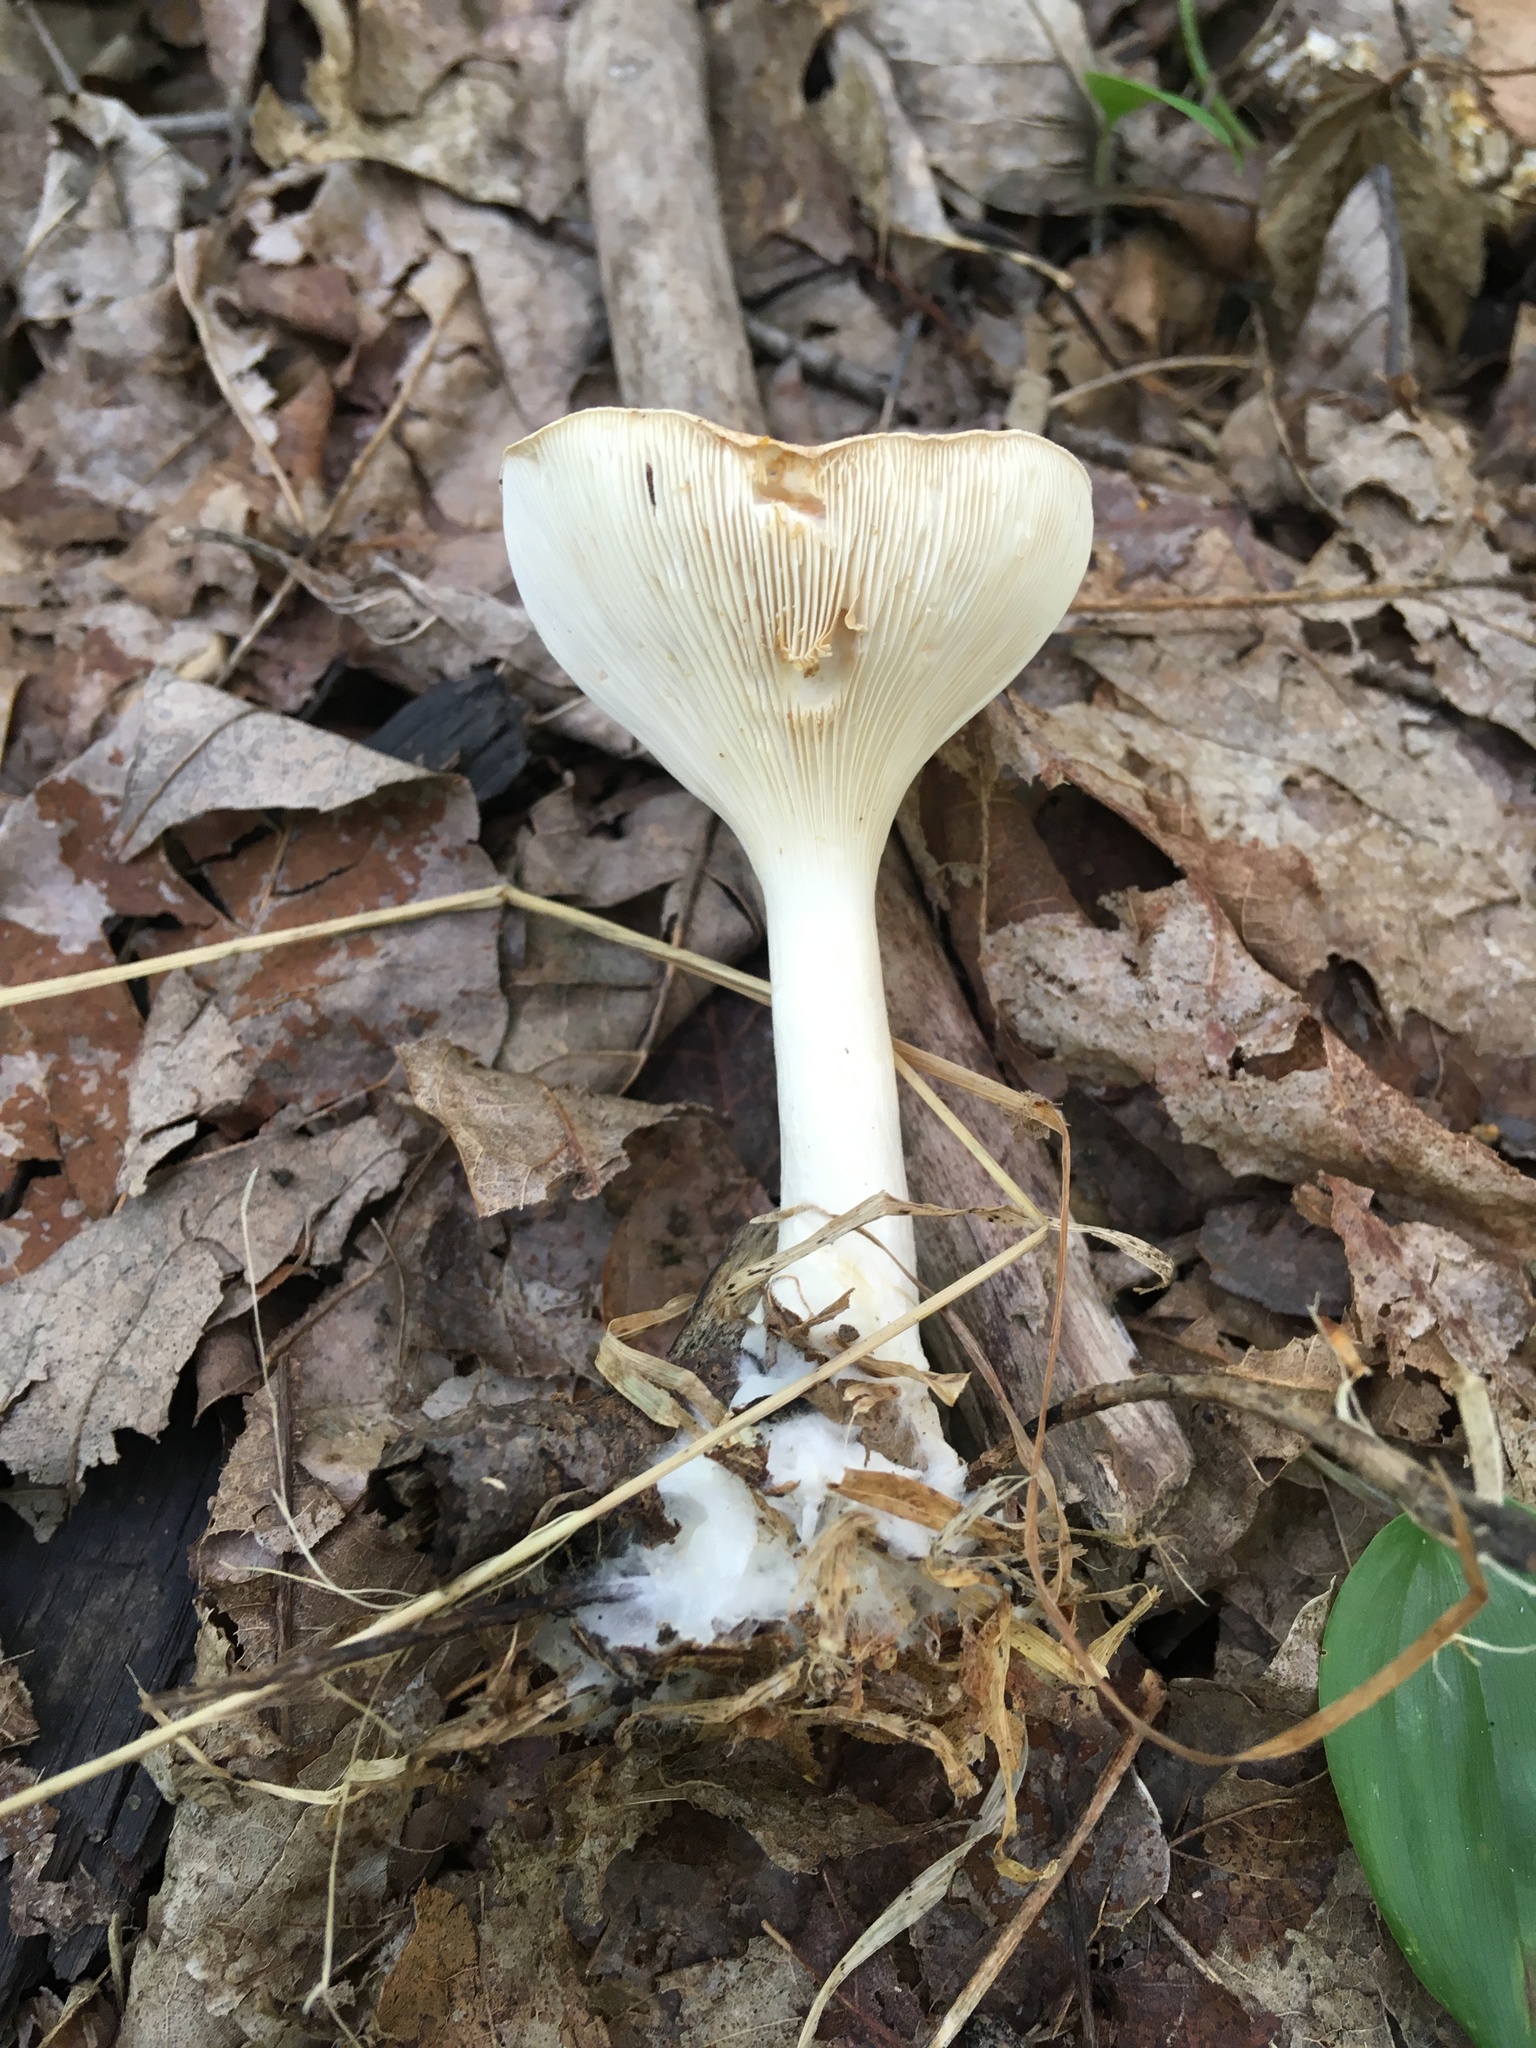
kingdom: Fungi
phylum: Basidiomycota
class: Agaricomycetes
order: Agaricales
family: Tricholomataceae
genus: Infundibulicybe
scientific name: Infundibulicybe gibba
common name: Common funnel
